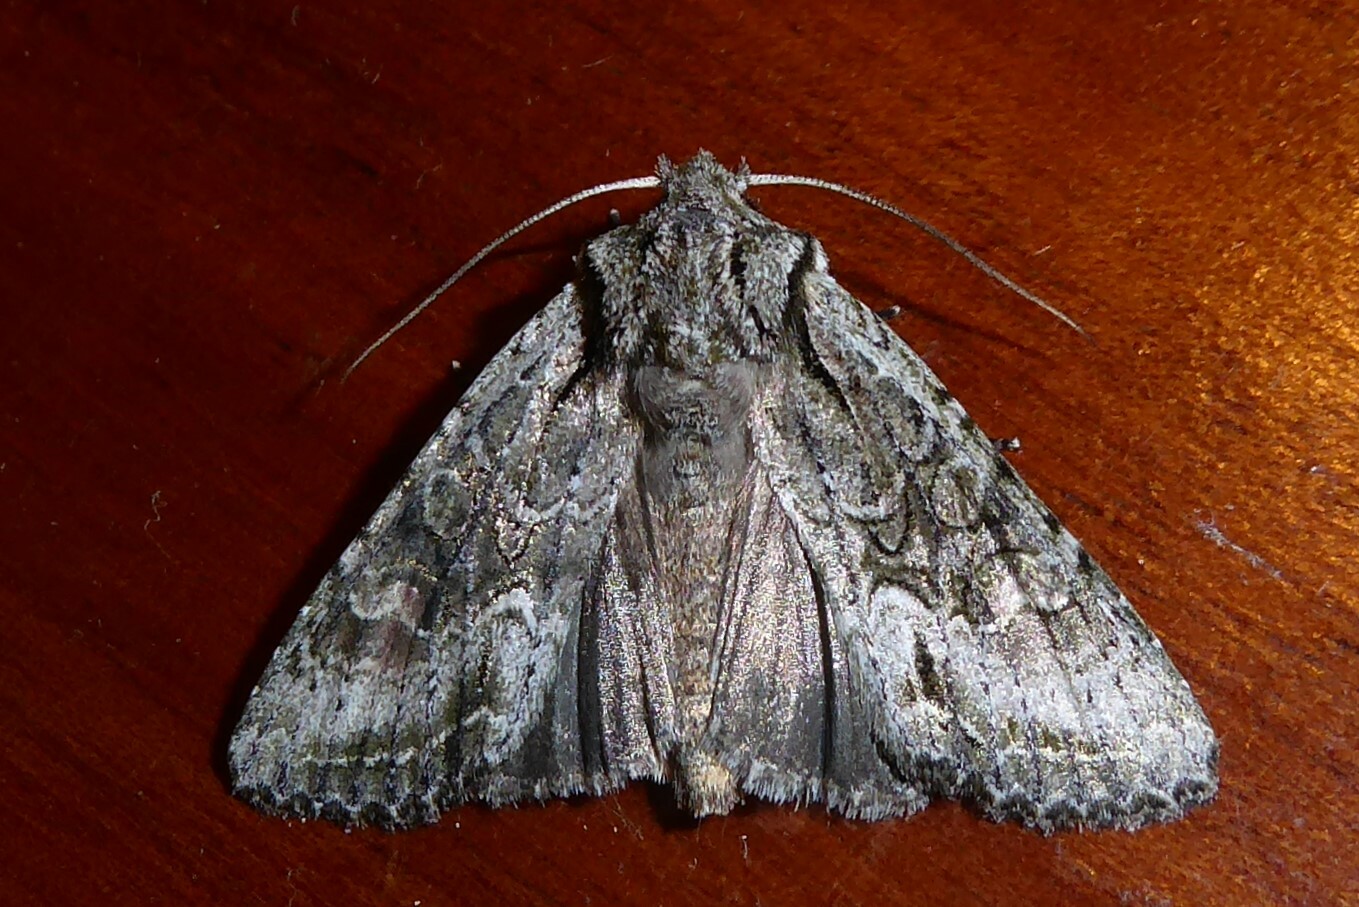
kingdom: Animalia
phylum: Arthropoda
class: Insecta
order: Lepidoptera
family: Noctuidae
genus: Ichneutica
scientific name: Ichneutica mutans
